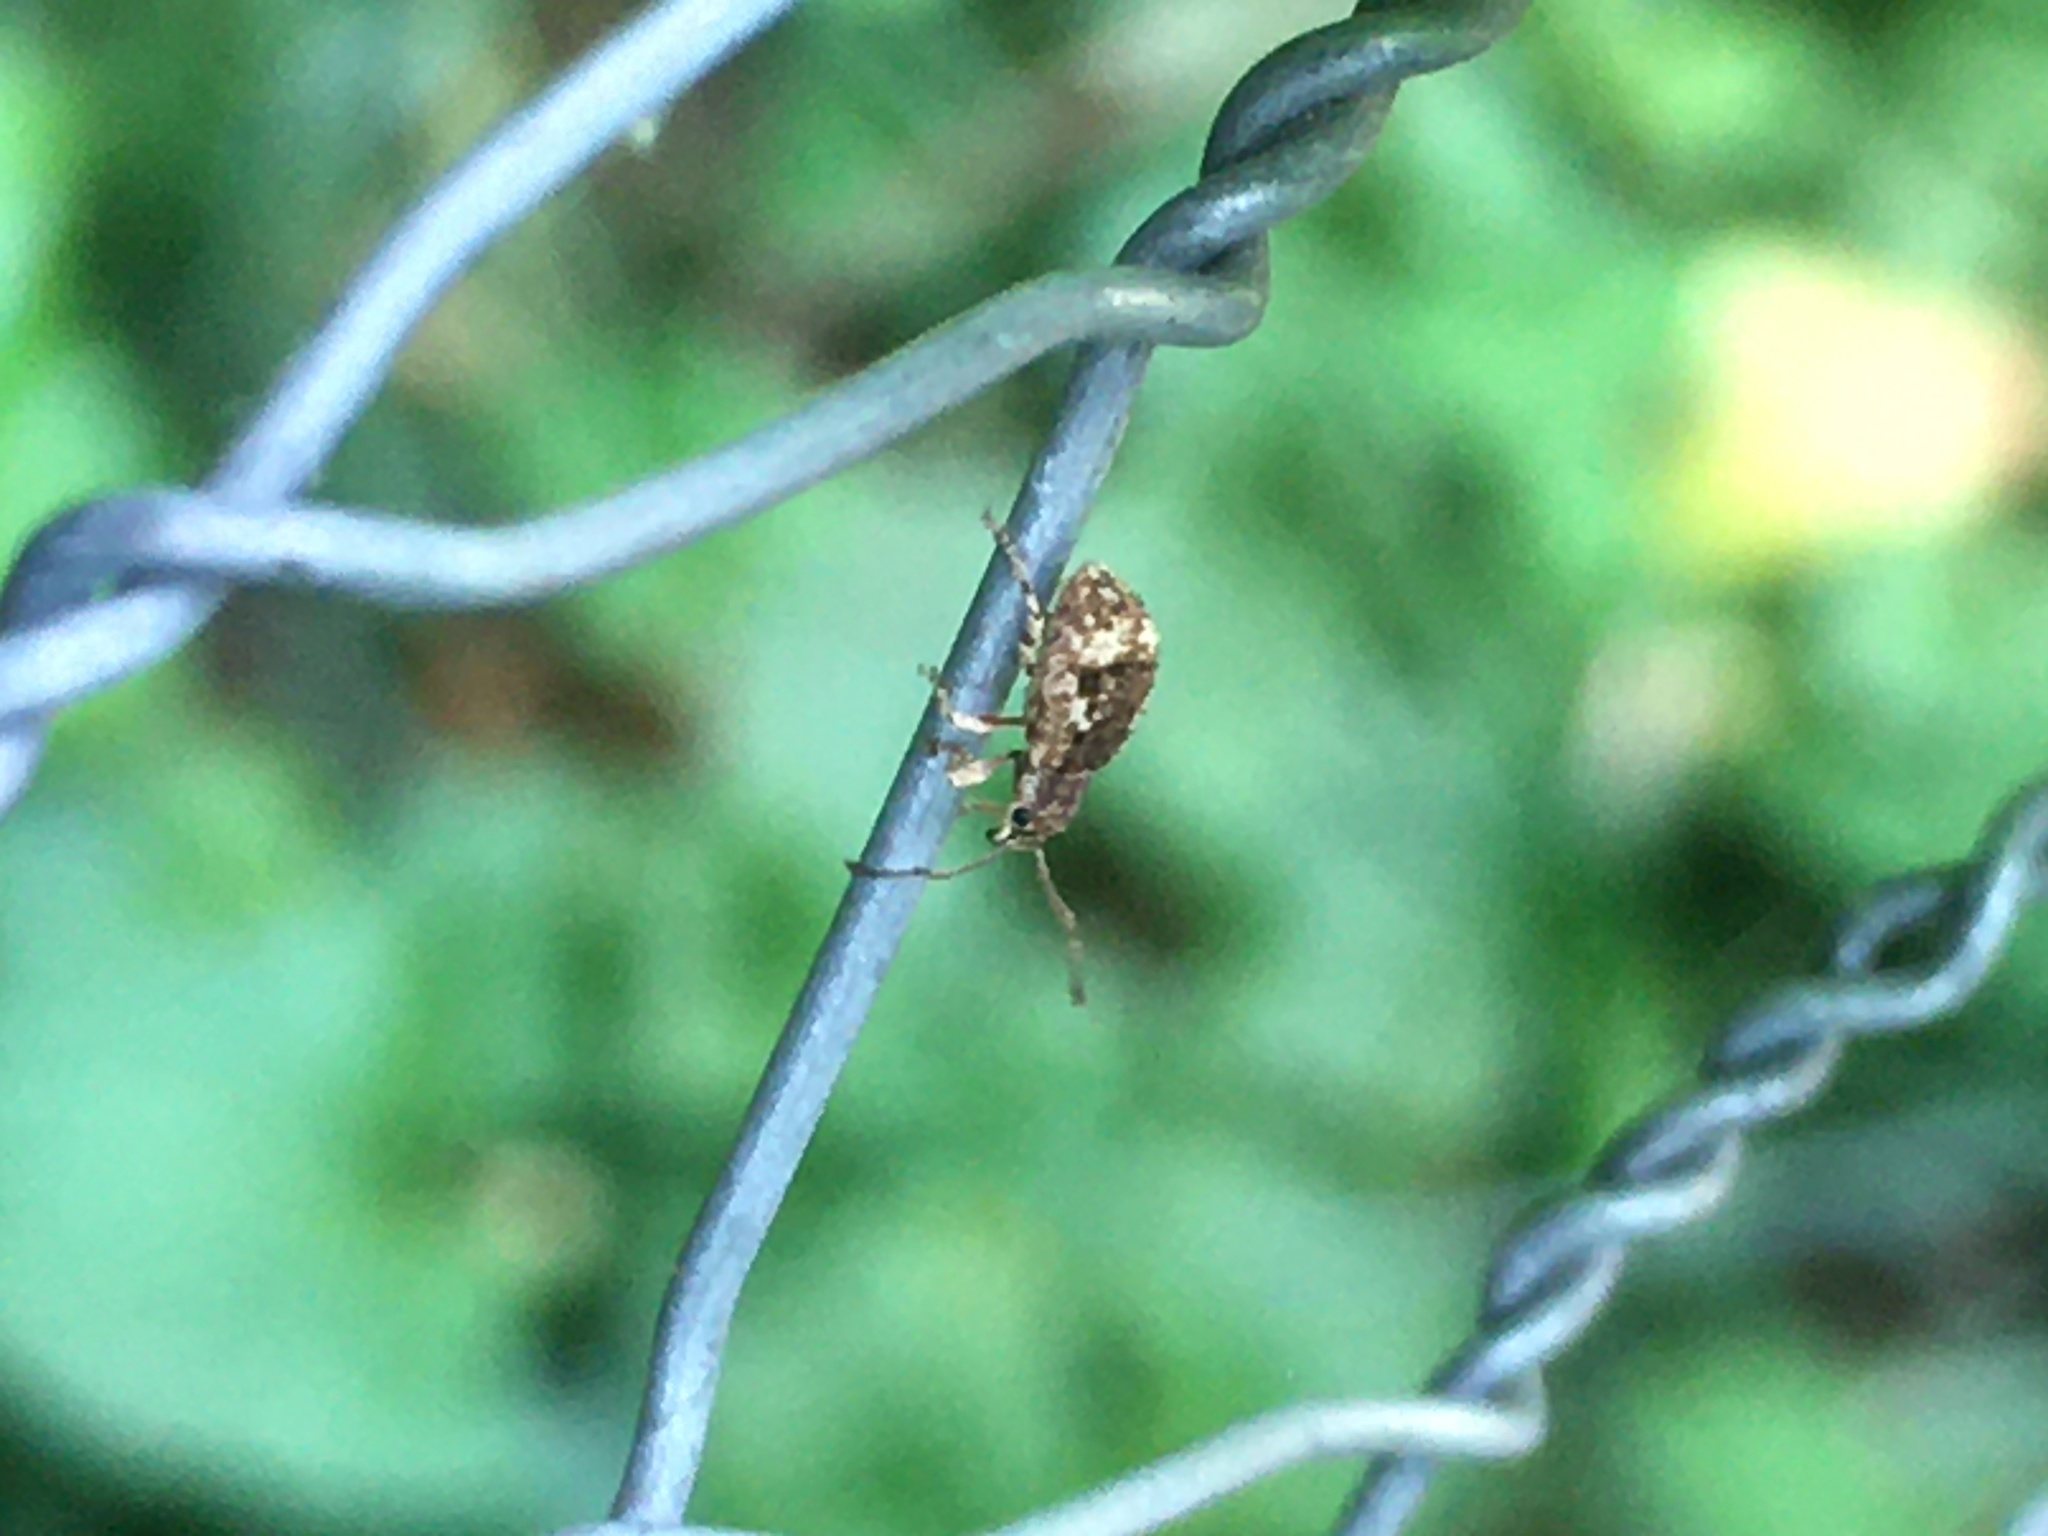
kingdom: Animalia
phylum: Arthropoda
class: Insecta
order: Coleoptera
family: Curculionidae
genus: Pseudoedophrys
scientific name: Pseudoedophrys hilleri
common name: Weevil
